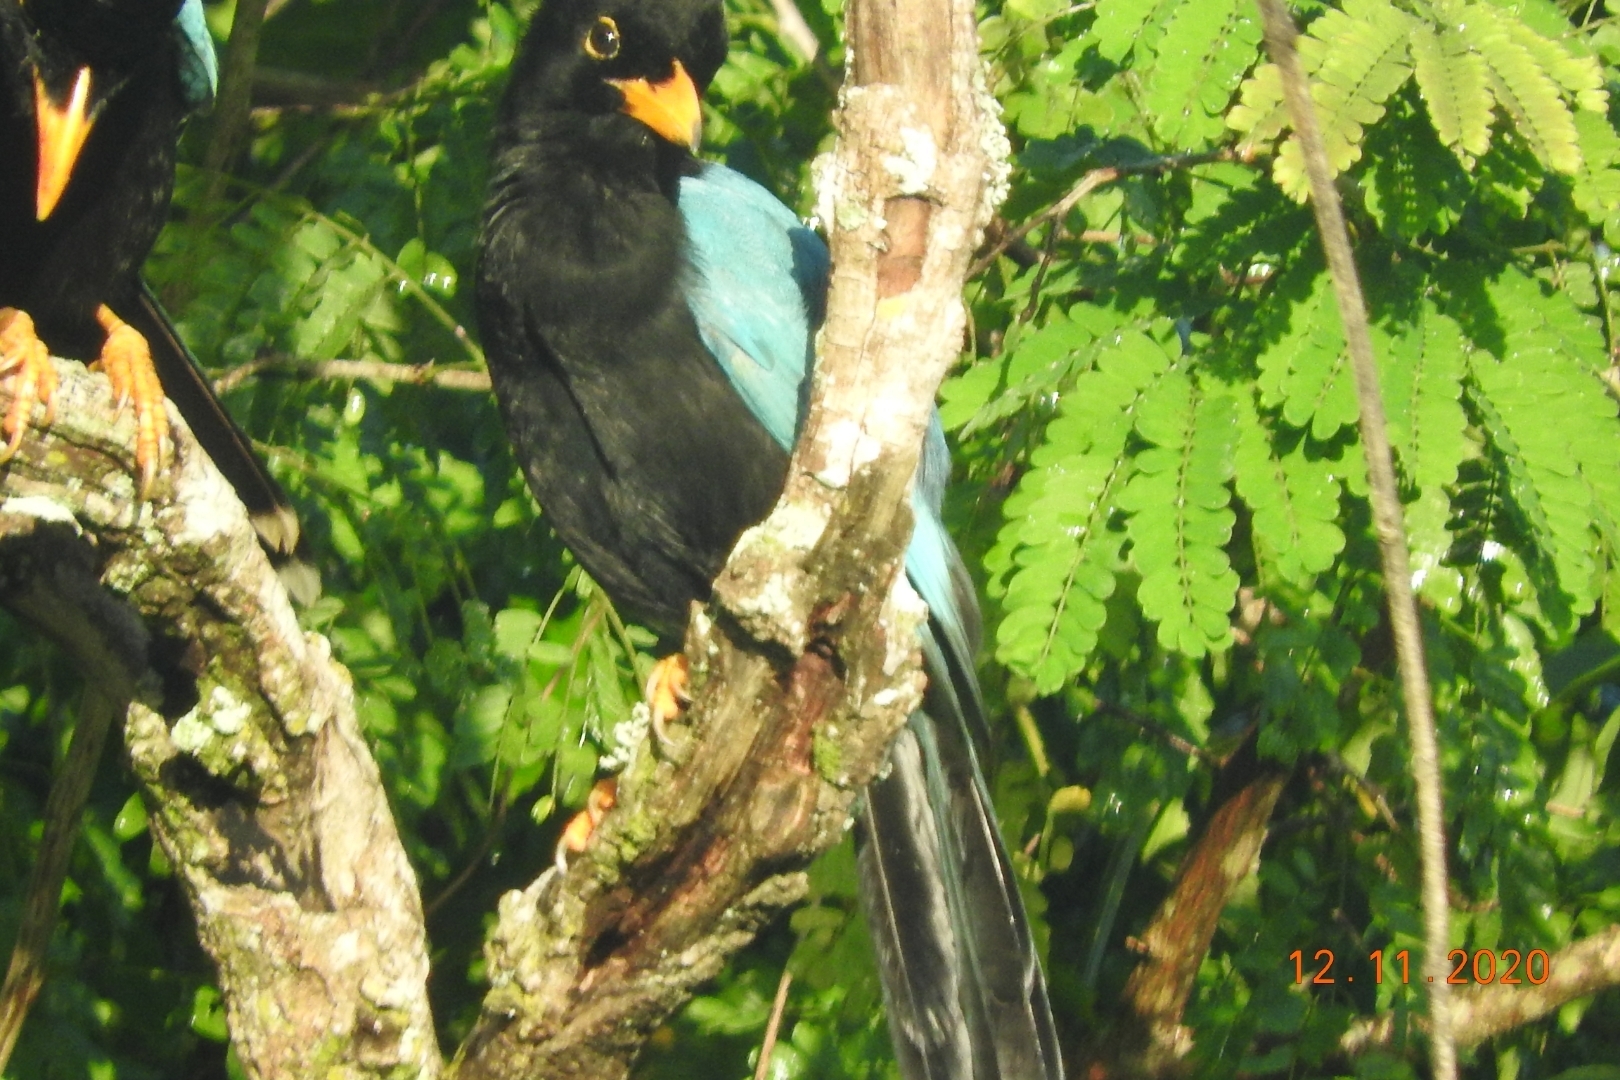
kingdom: Animalia
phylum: Chordata
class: Aves
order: Passeriformes
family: Corvidae
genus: Cyanocorax
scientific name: Cyanocorax yucatanicus
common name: Yucatan jay
